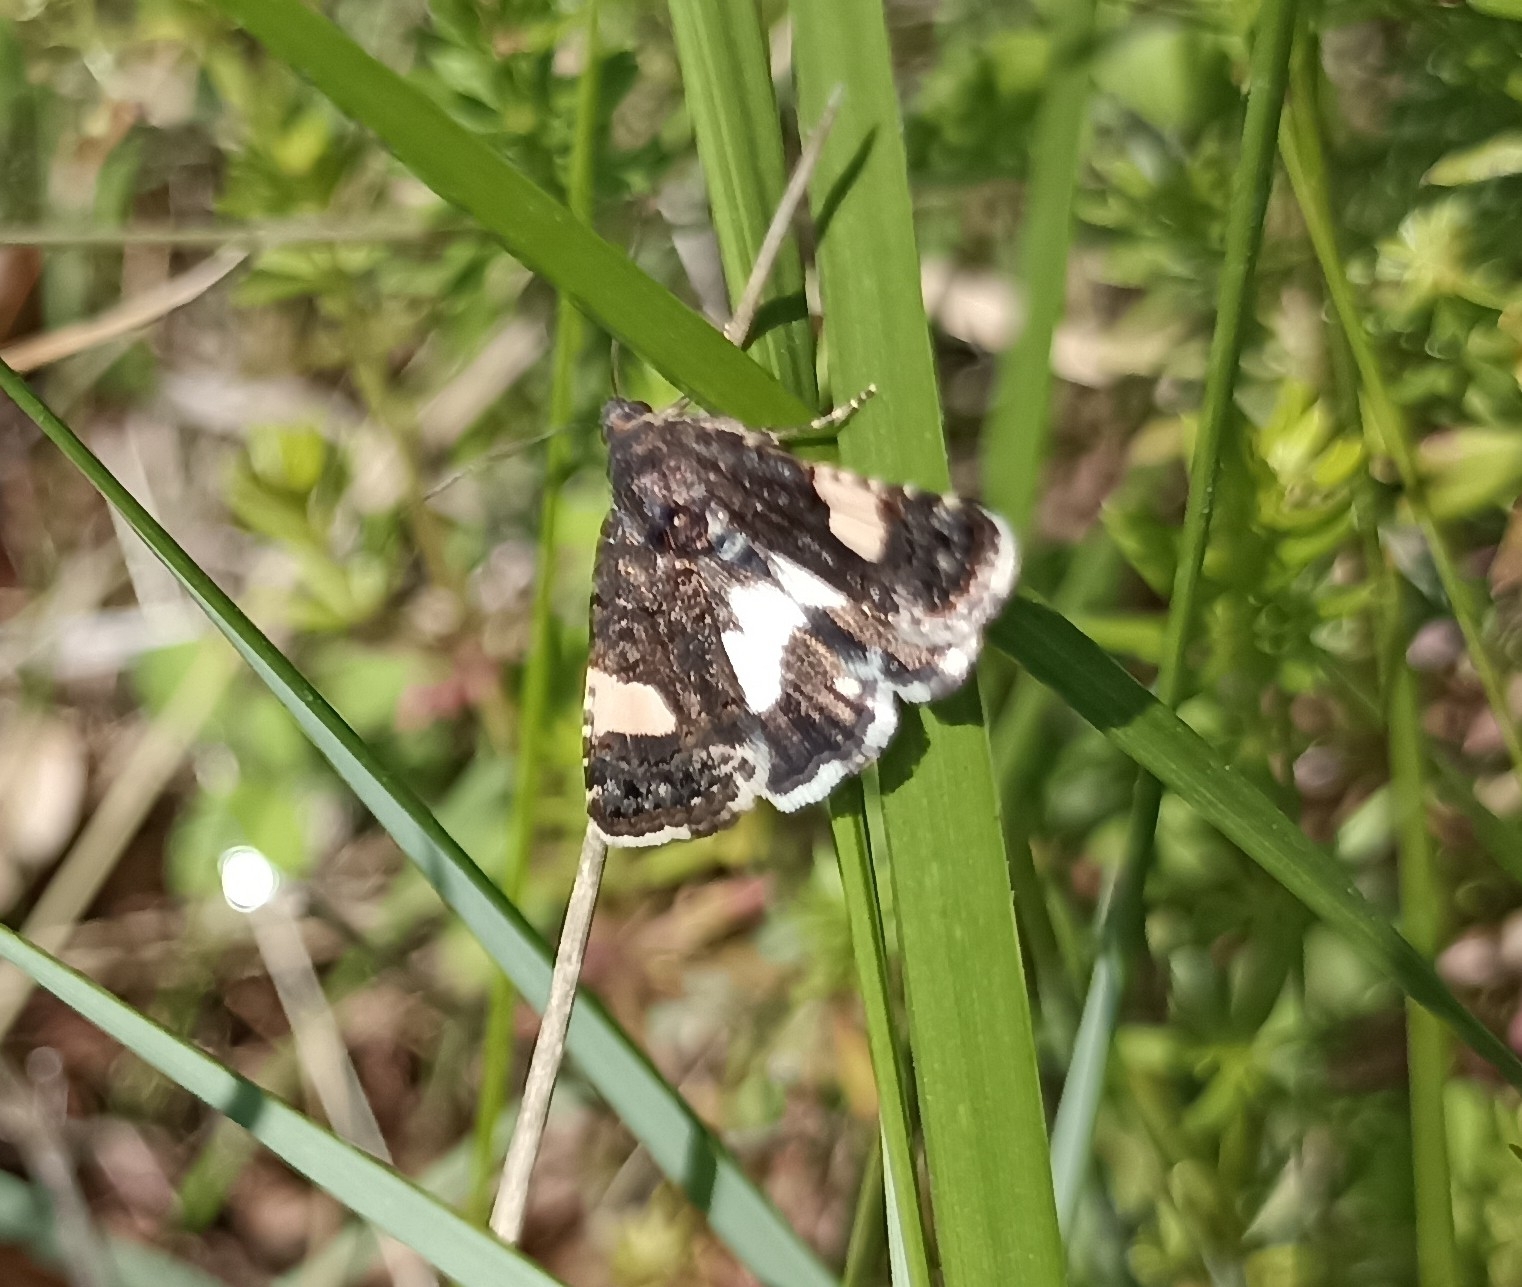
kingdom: Animalia
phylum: Arthropoda
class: Insecta
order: Lepidoptera
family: Erebidae
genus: Tyta
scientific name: Tyta luctuosa
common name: Four-spotted
